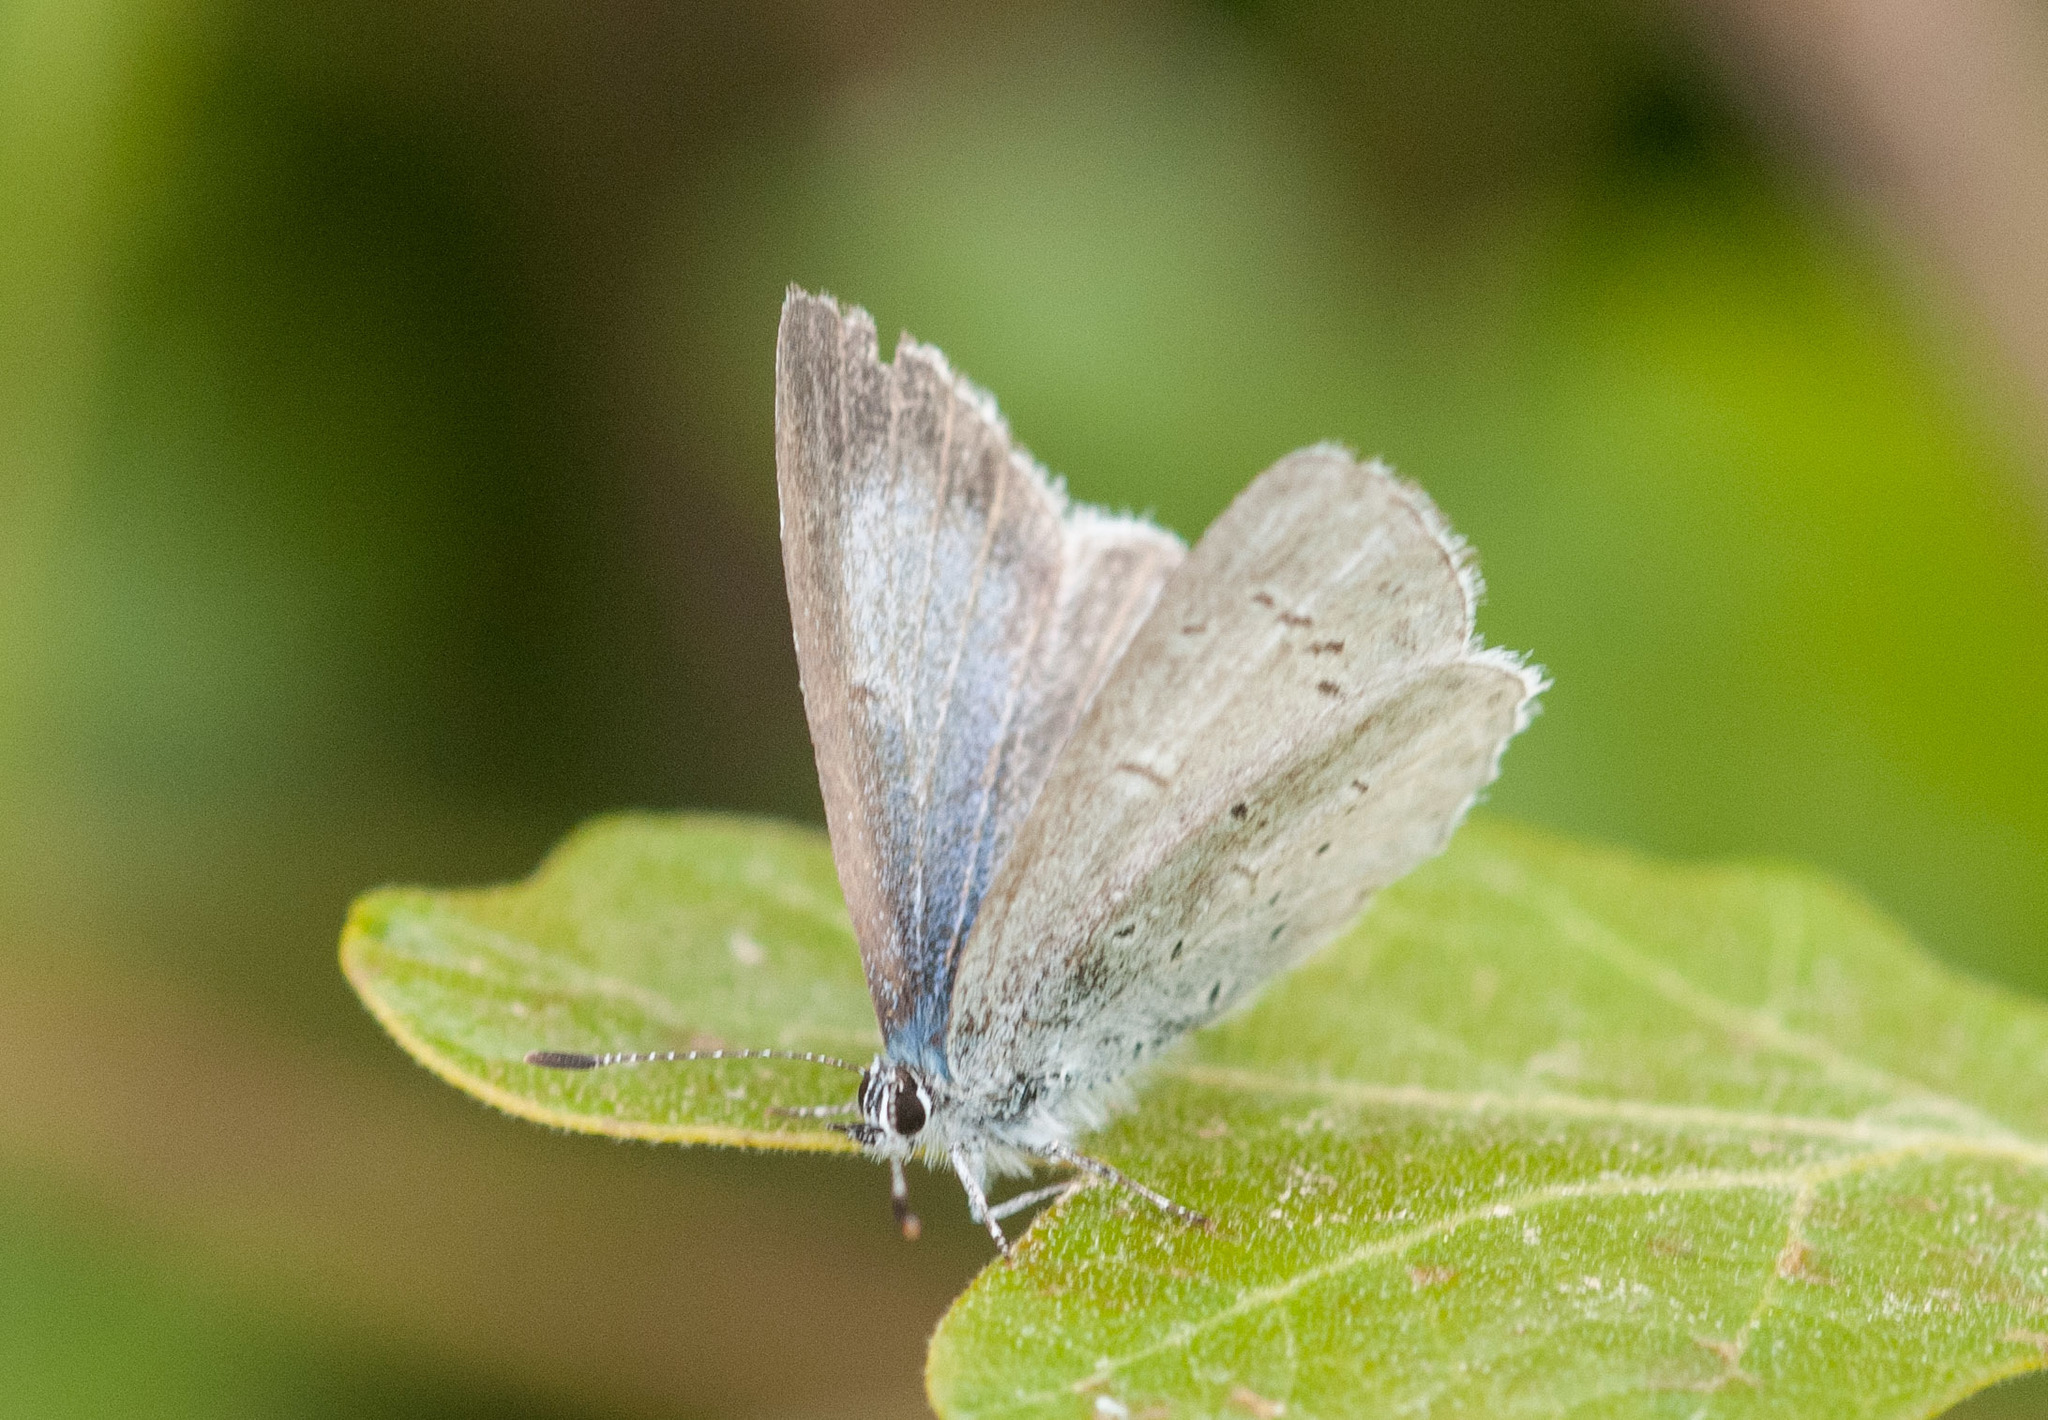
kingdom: Animalia
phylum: Arthropoda
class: Insecta
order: Lepidoptera
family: Lycaenidae
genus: Celastrina
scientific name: Celastrina ladon
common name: Spring azure
